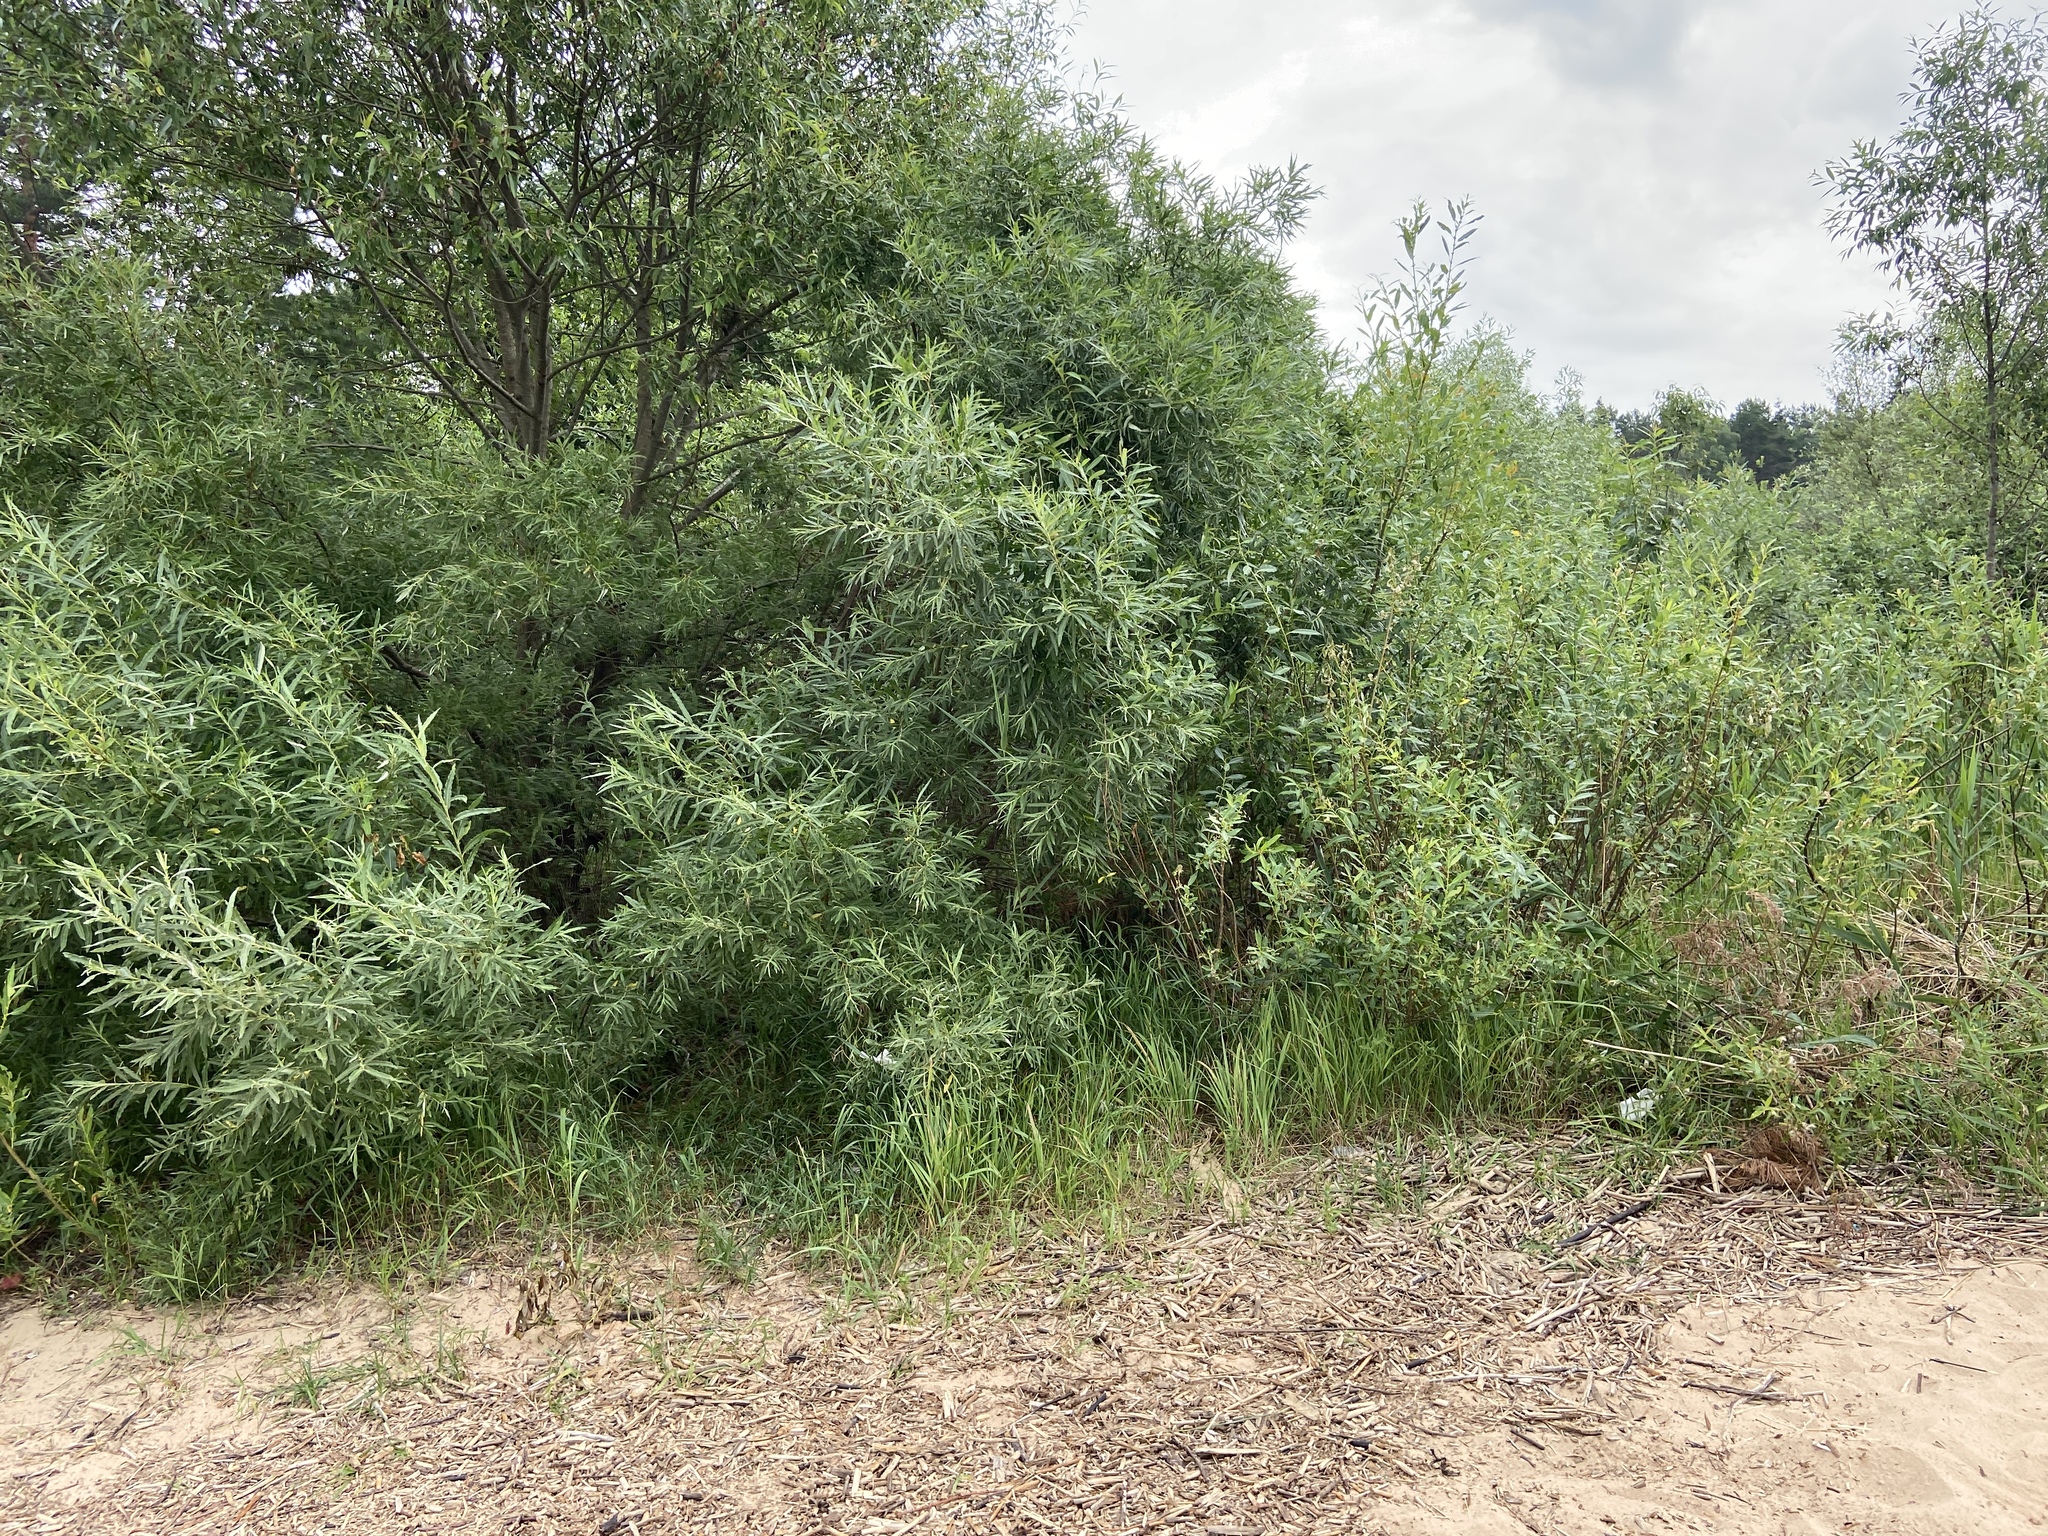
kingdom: Plantae
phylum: Tracheophyta
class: Magnoliopsida
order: Malpighiales
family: Salicaceae
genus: Salix
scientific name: Salix viminalis
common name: Osier
